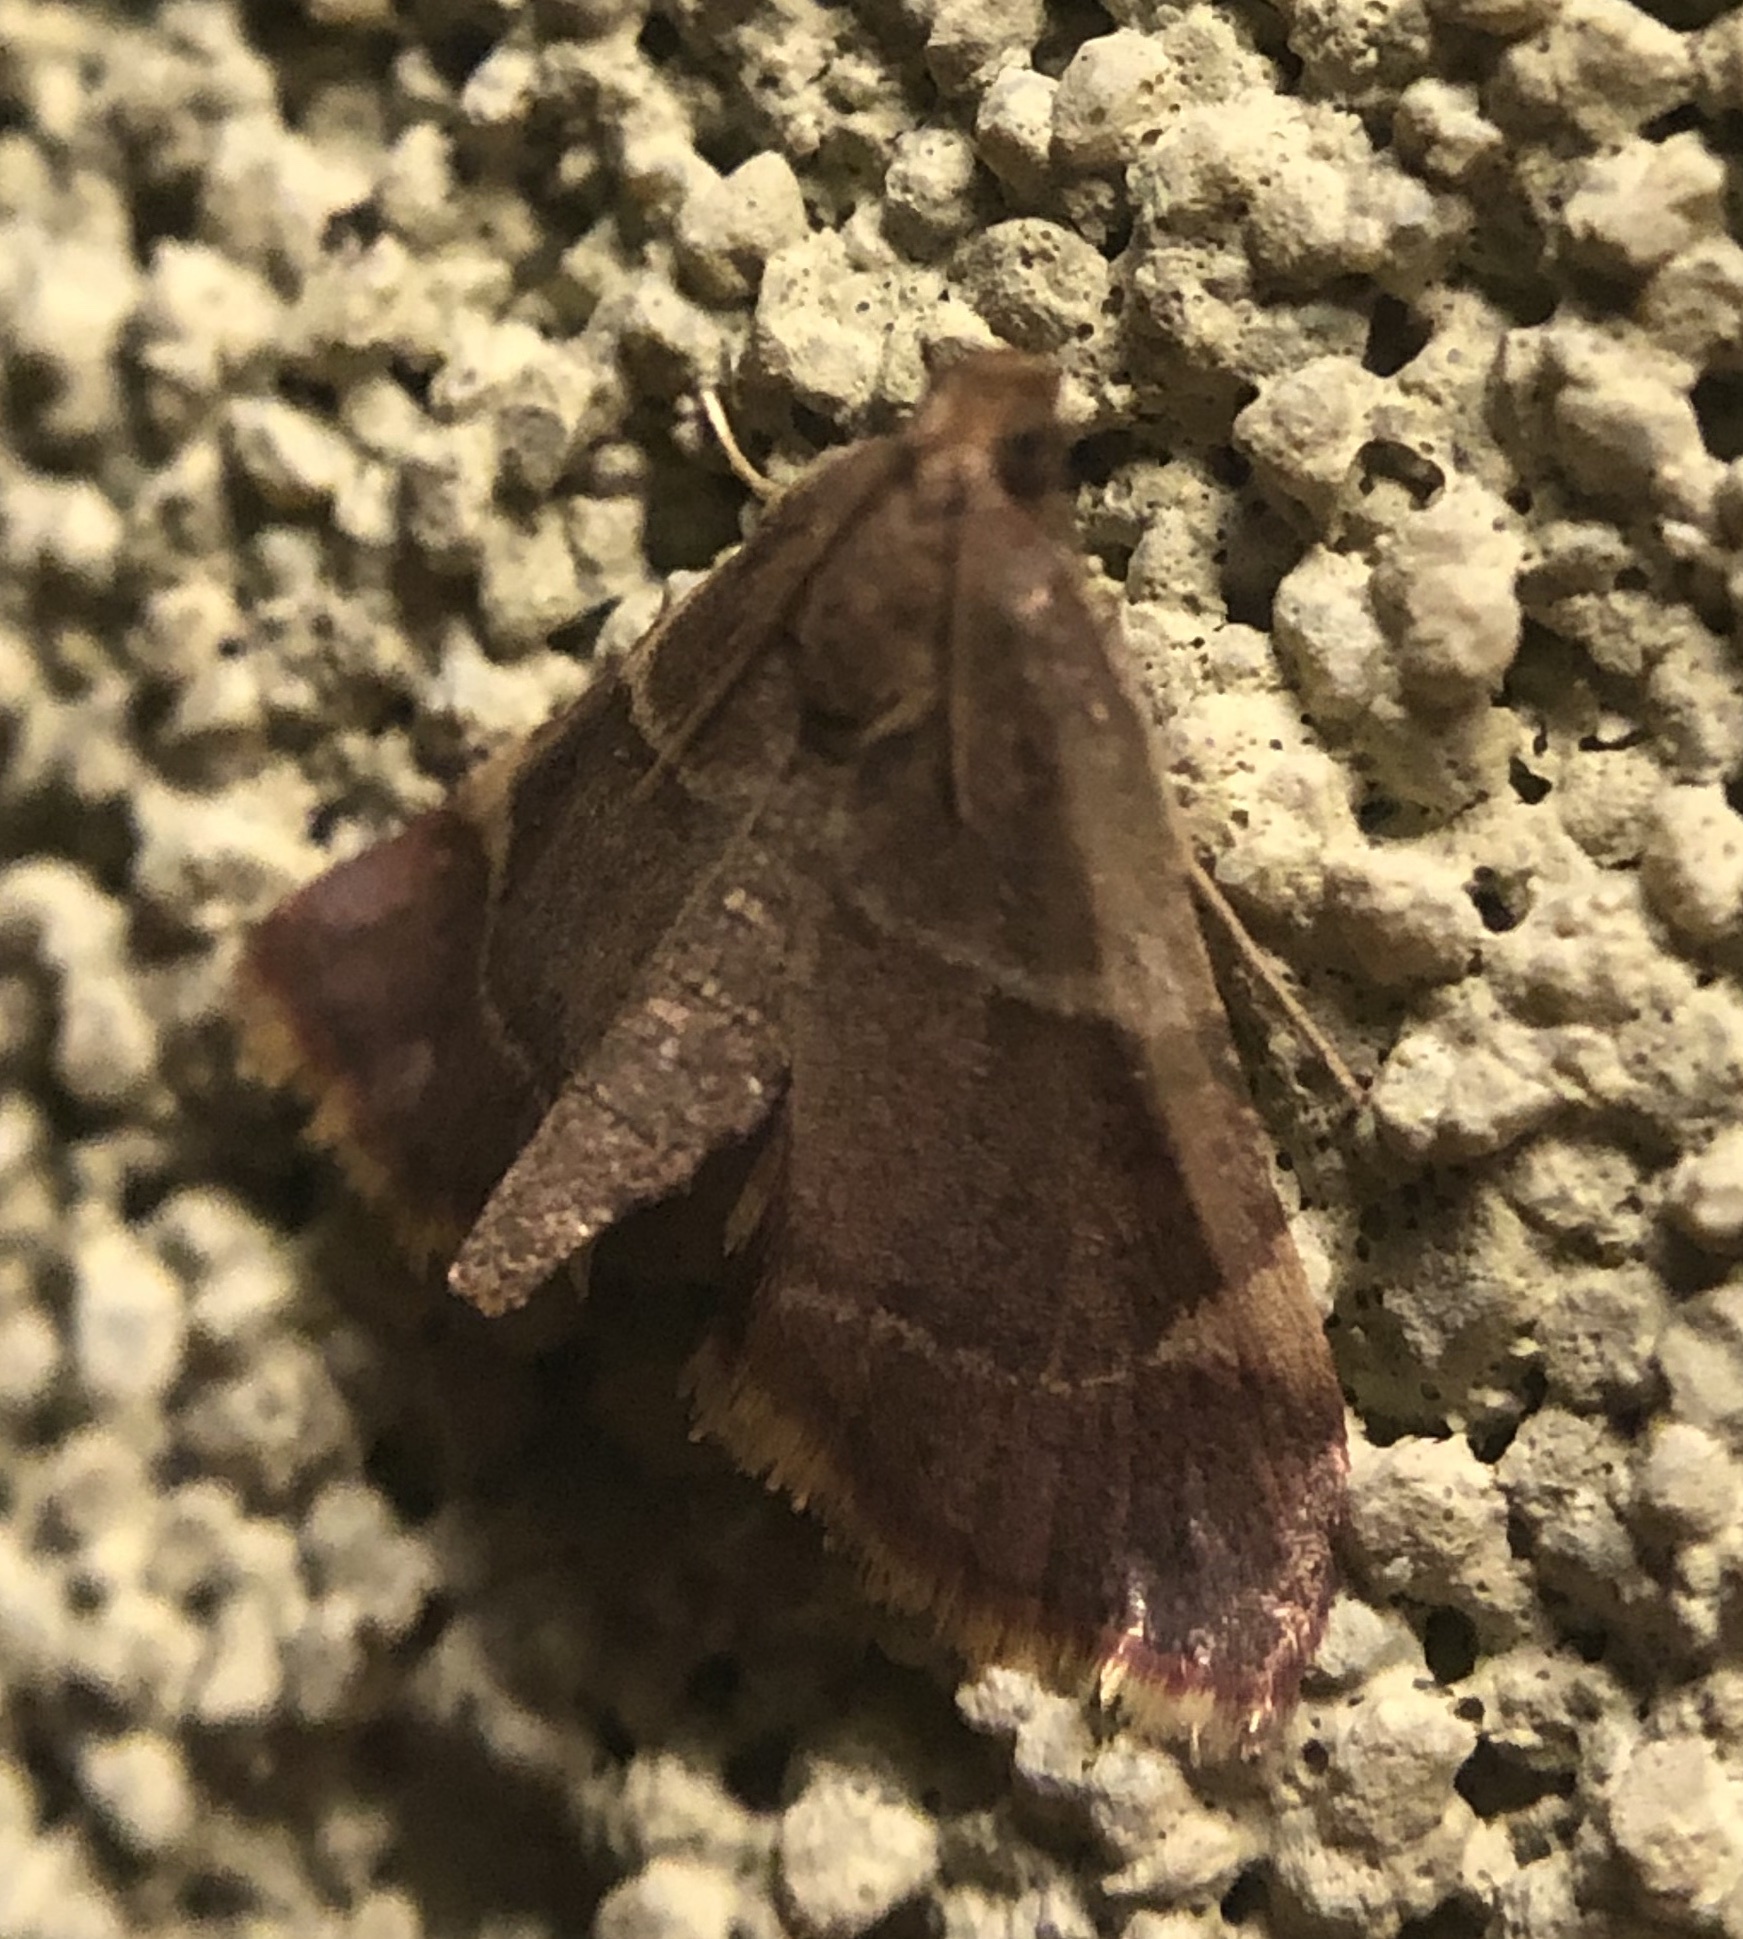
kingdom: Animalia
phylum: Arthropoda
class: Insecta
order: Lepidoptera
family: Pyralidae
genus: Hypsopygia
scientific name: Hypsopygia binodulalis
